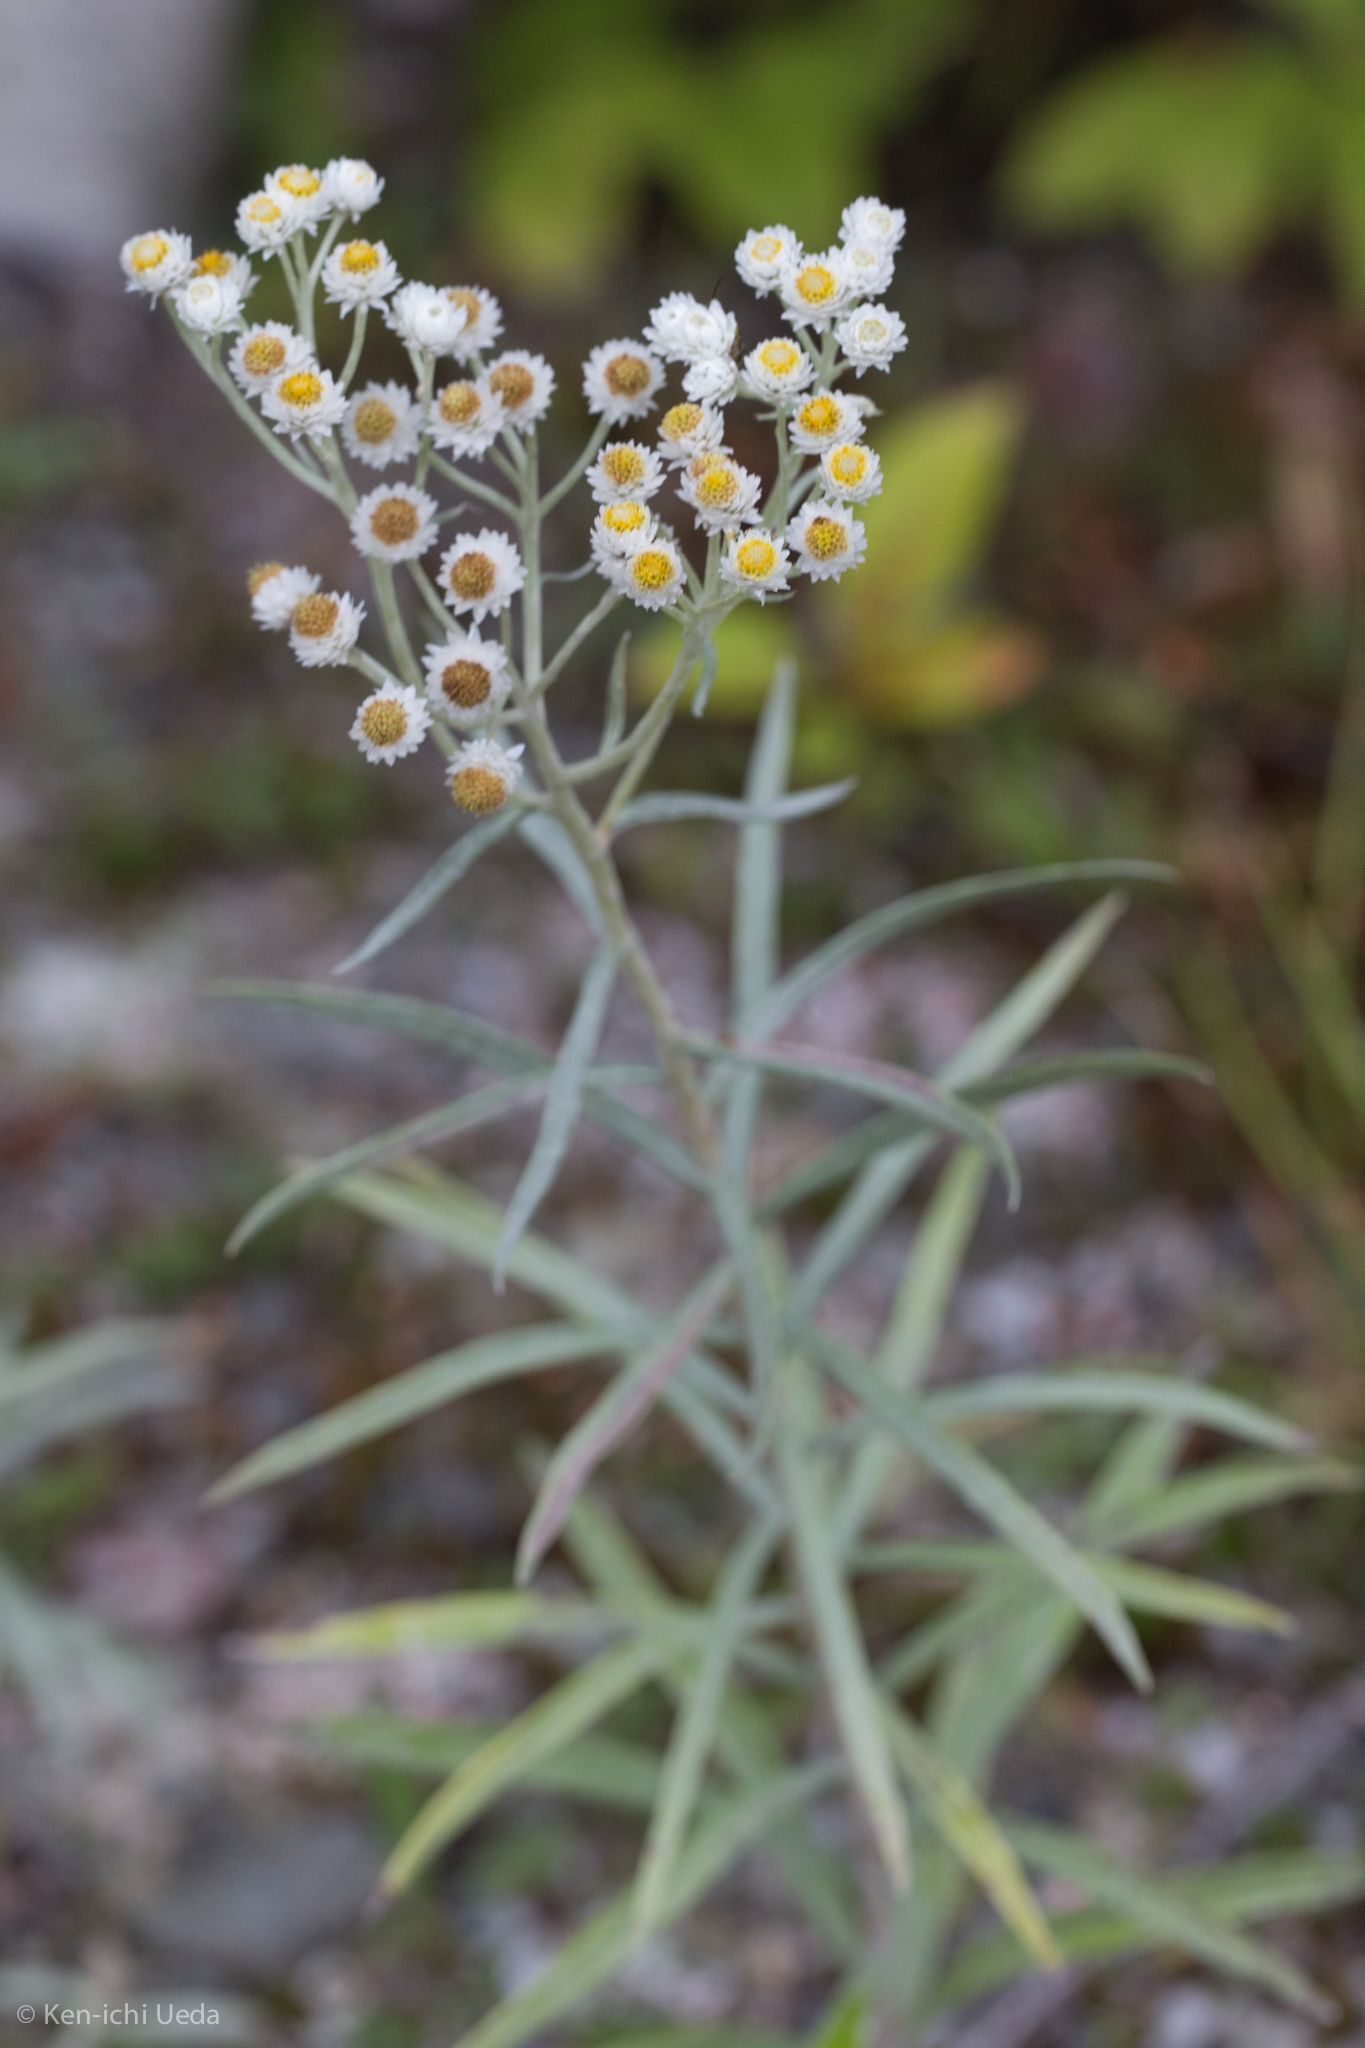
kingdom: Plantae
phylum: Tracheophyta
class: Magnoliopsida
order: Asterales
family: Asteraceae
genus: Anaphalis
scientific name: Anaphalis margaritacea
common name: Pearly everlasting
